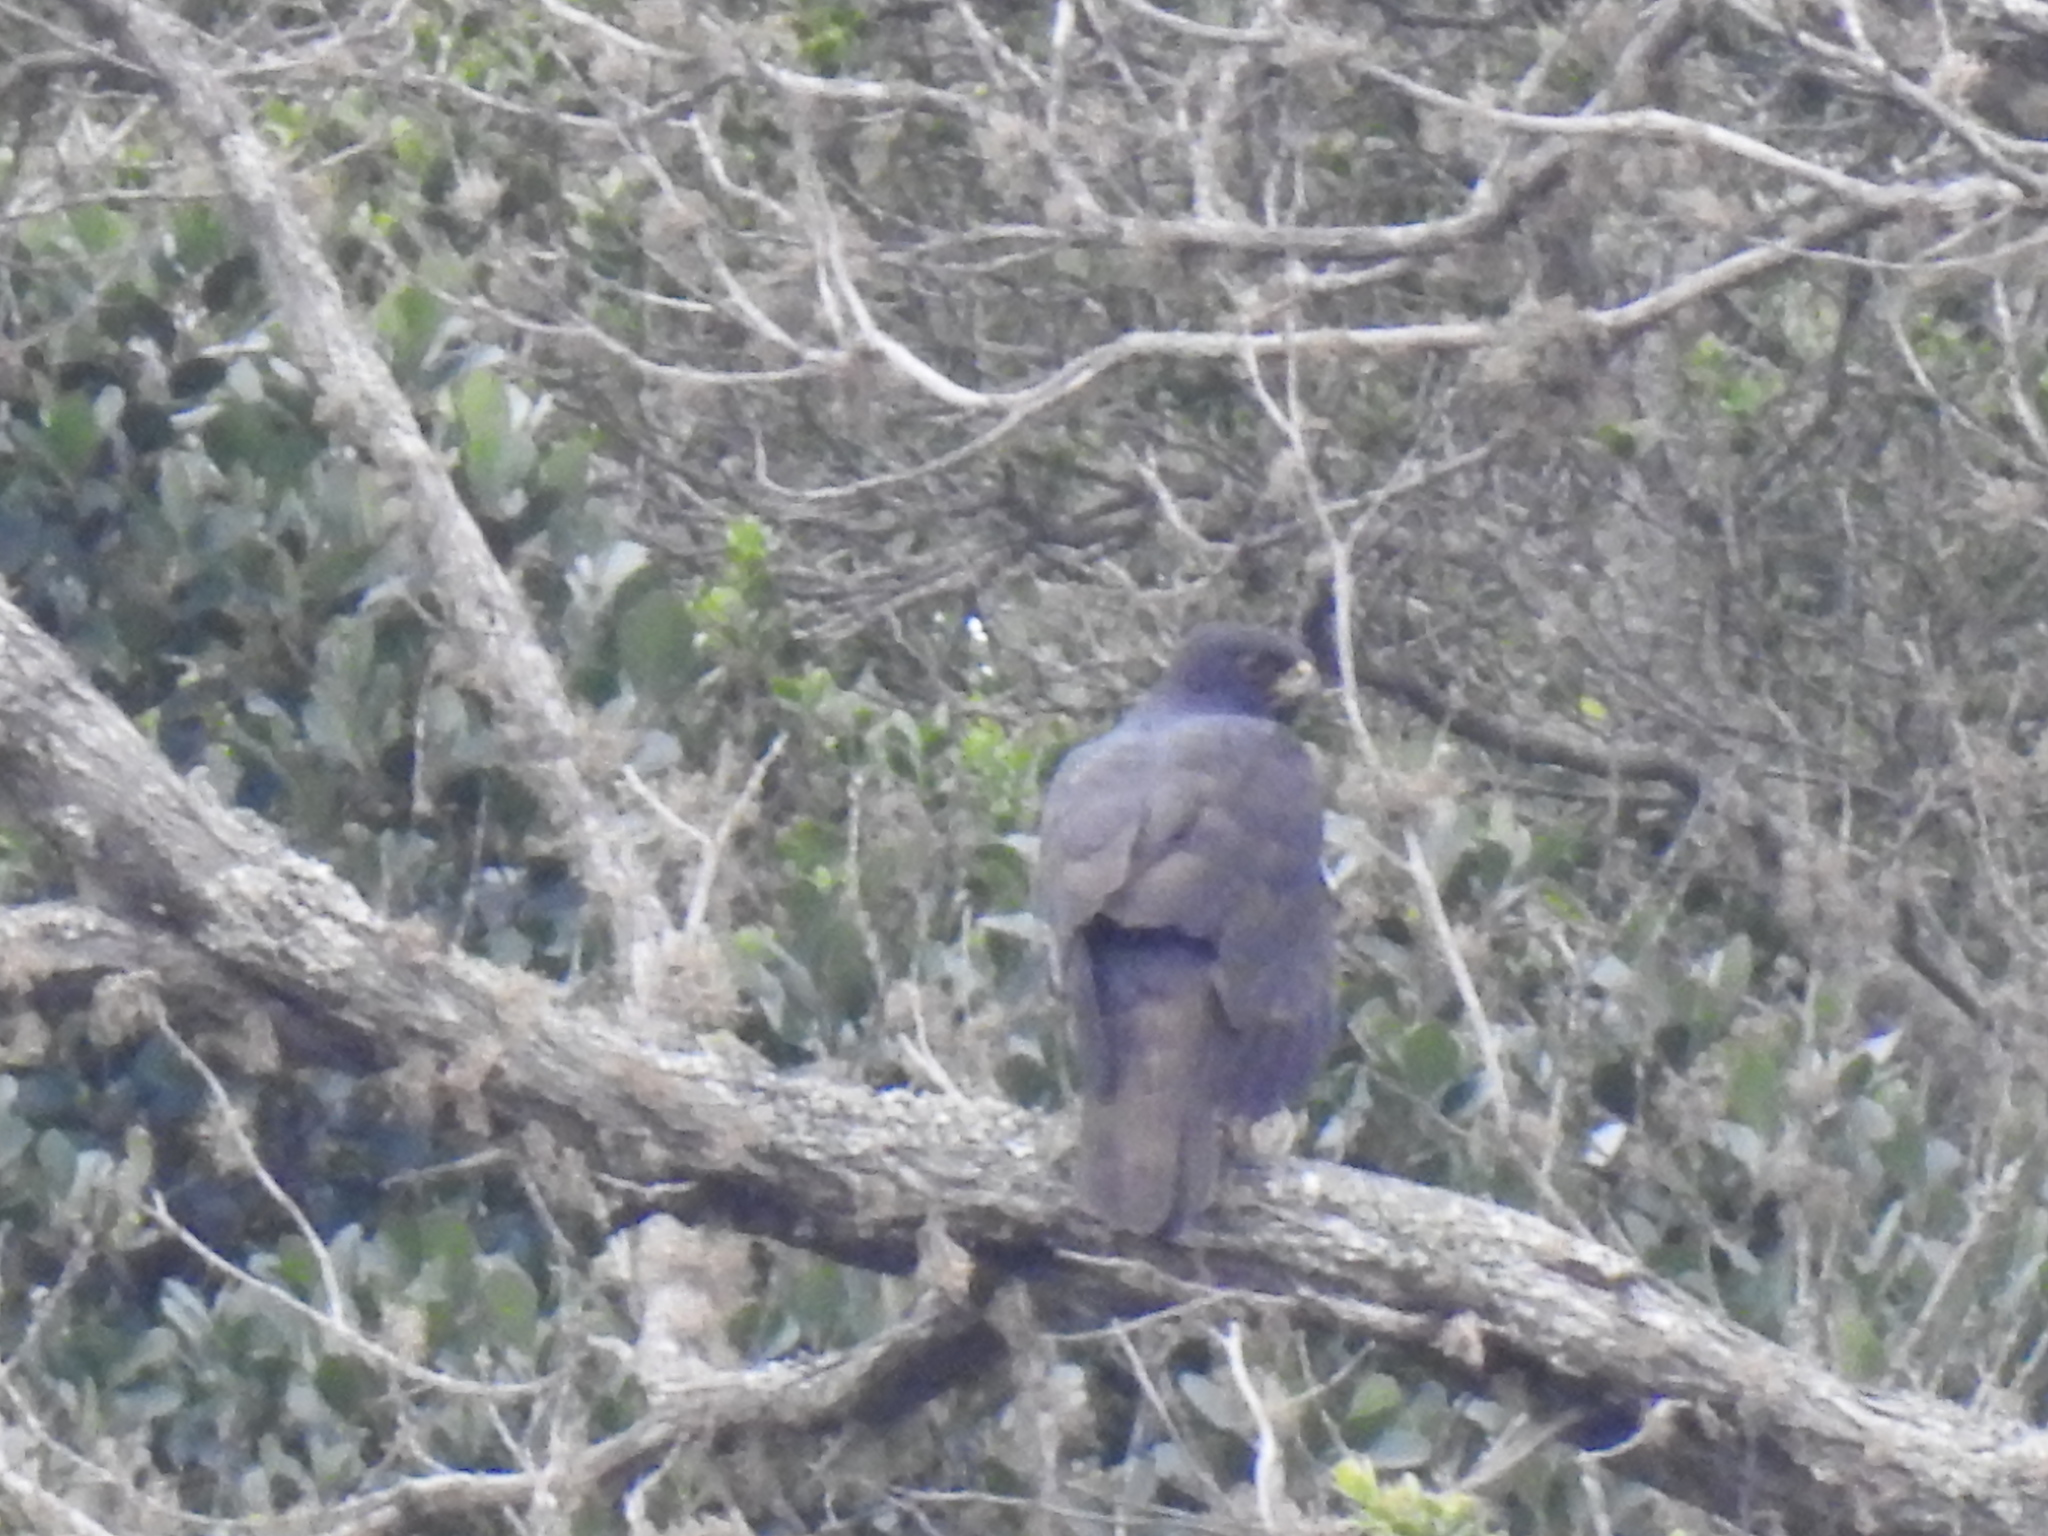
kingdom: Animalia
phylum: Chordata
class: Aves
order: Accipitriformes
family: Accipitridae
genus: Accipiter
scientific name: Accipiter melanoleucus
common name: Black sparrowhawk
